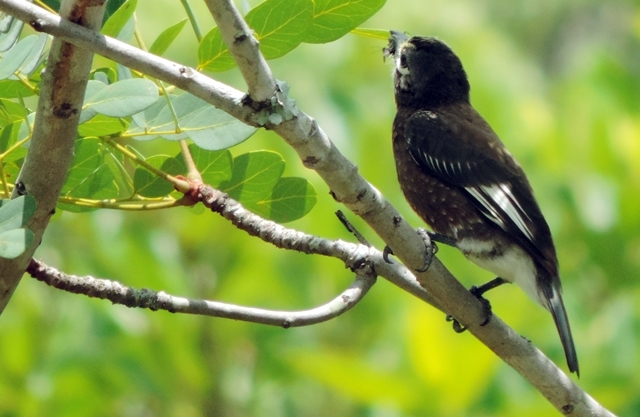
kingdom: Animalia
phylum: Chordata
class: Aves
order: Piciformes
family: Lybiidae
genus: Stactolaema
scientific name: Stactolaema whytii
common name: Whyte's barbet
